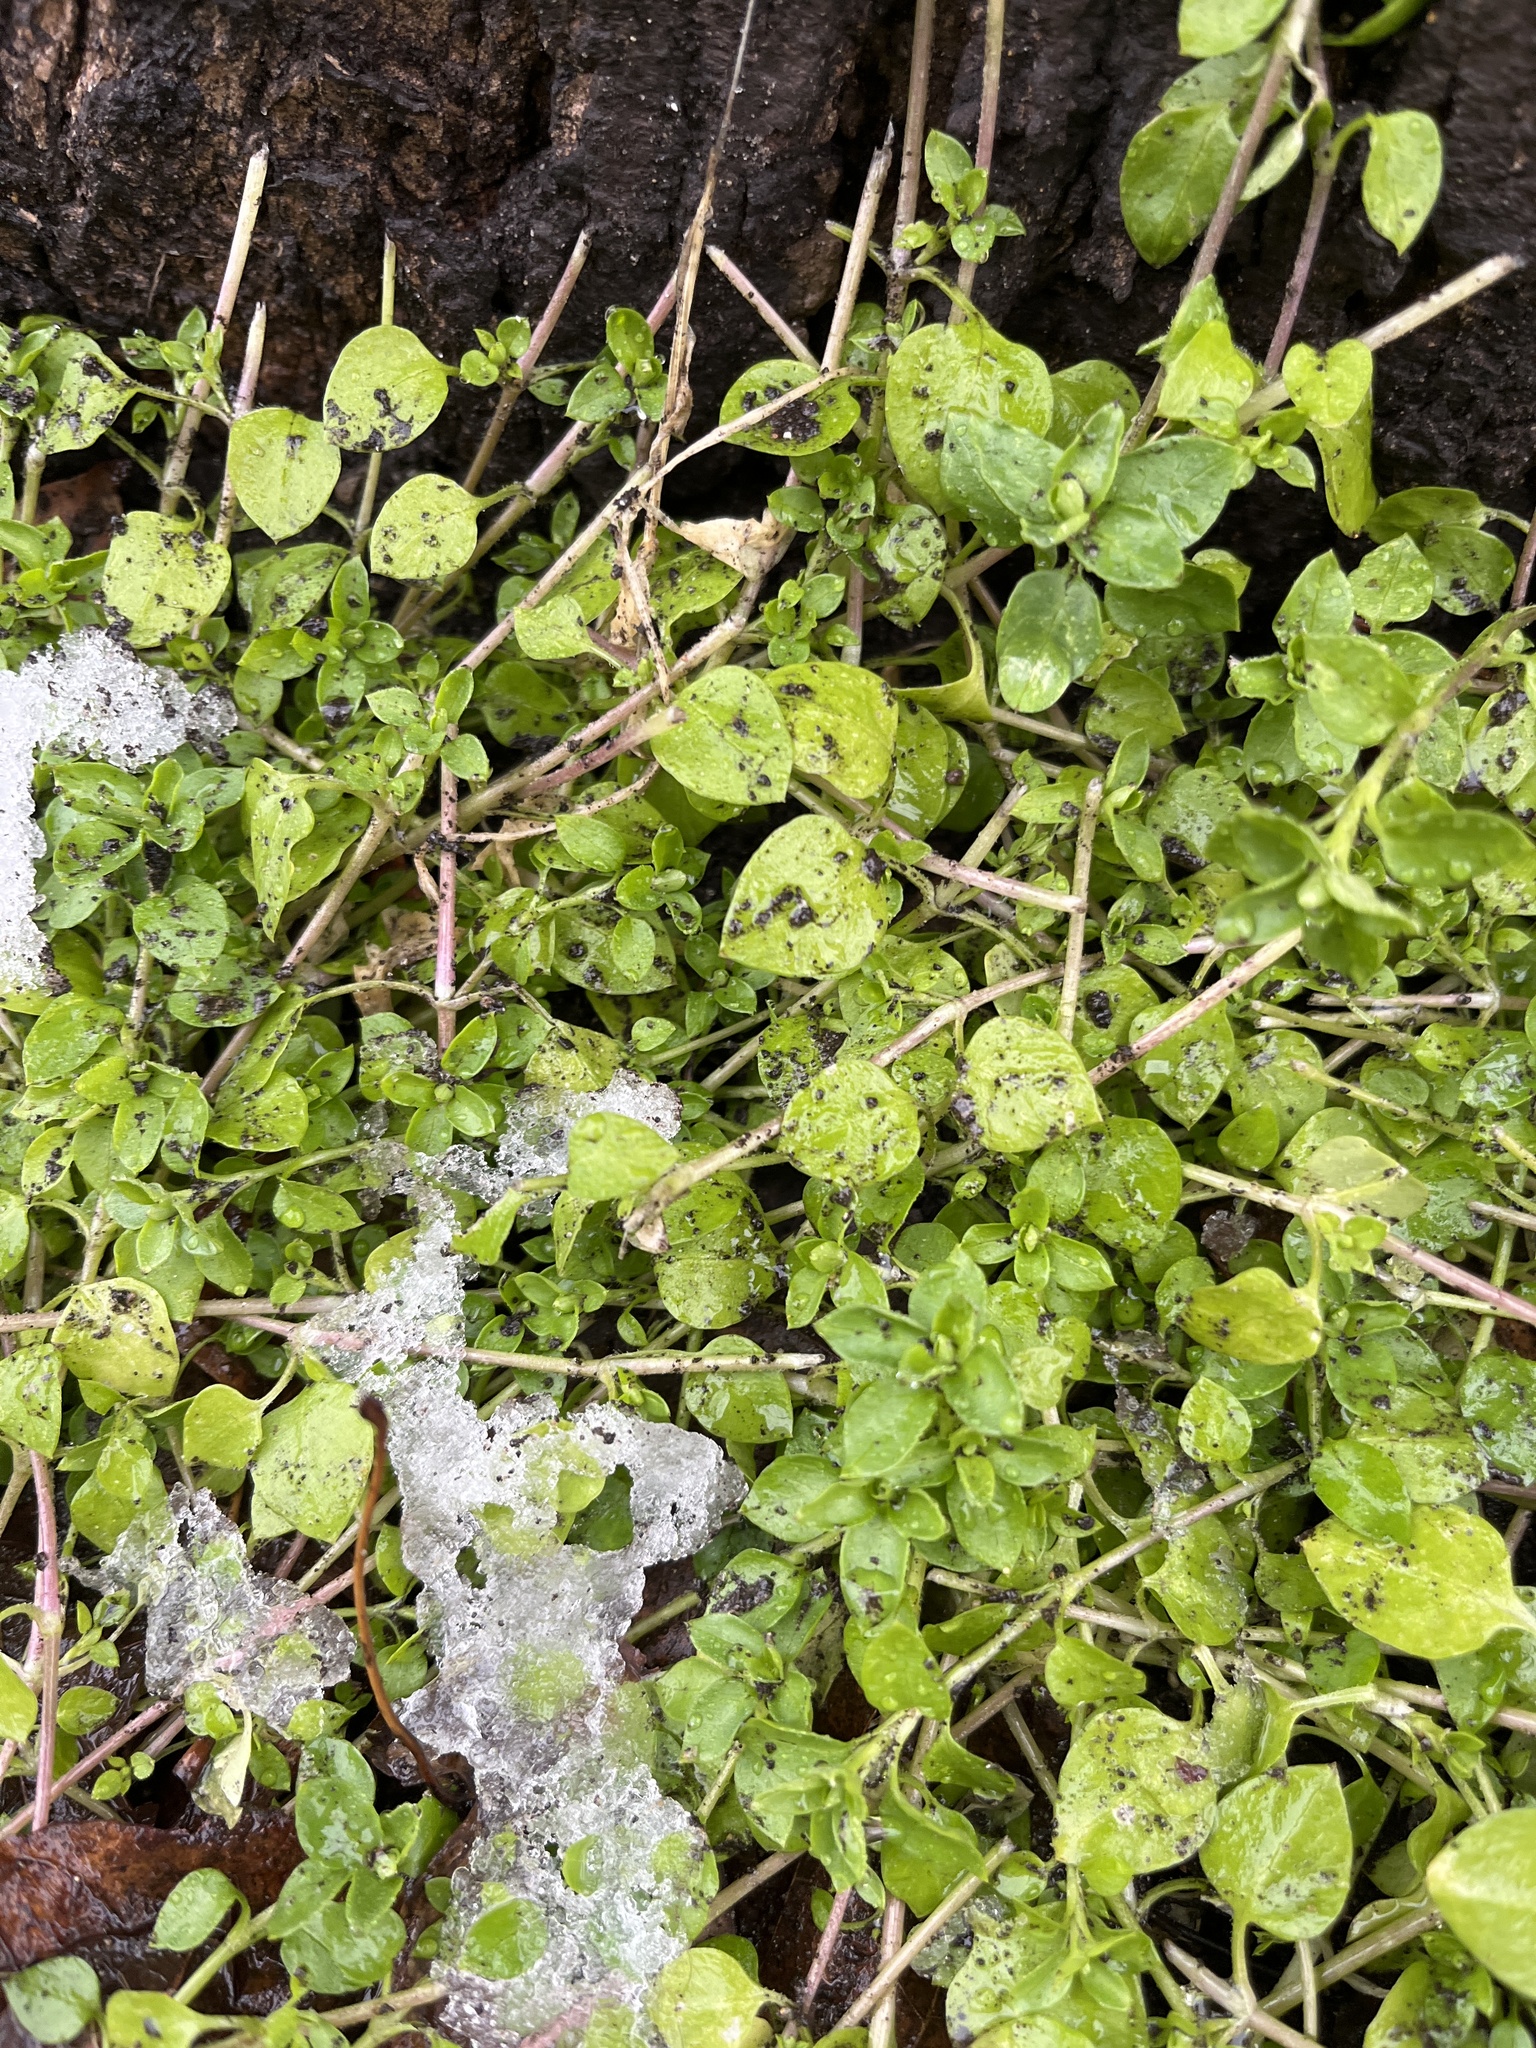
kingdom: Plantae
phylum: Tracheophyta
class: Magnoliopsida
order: Caryophyllales
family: Caryophyllaceae
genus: Stellaria
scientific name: Stellaria media
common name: Common chickweed
